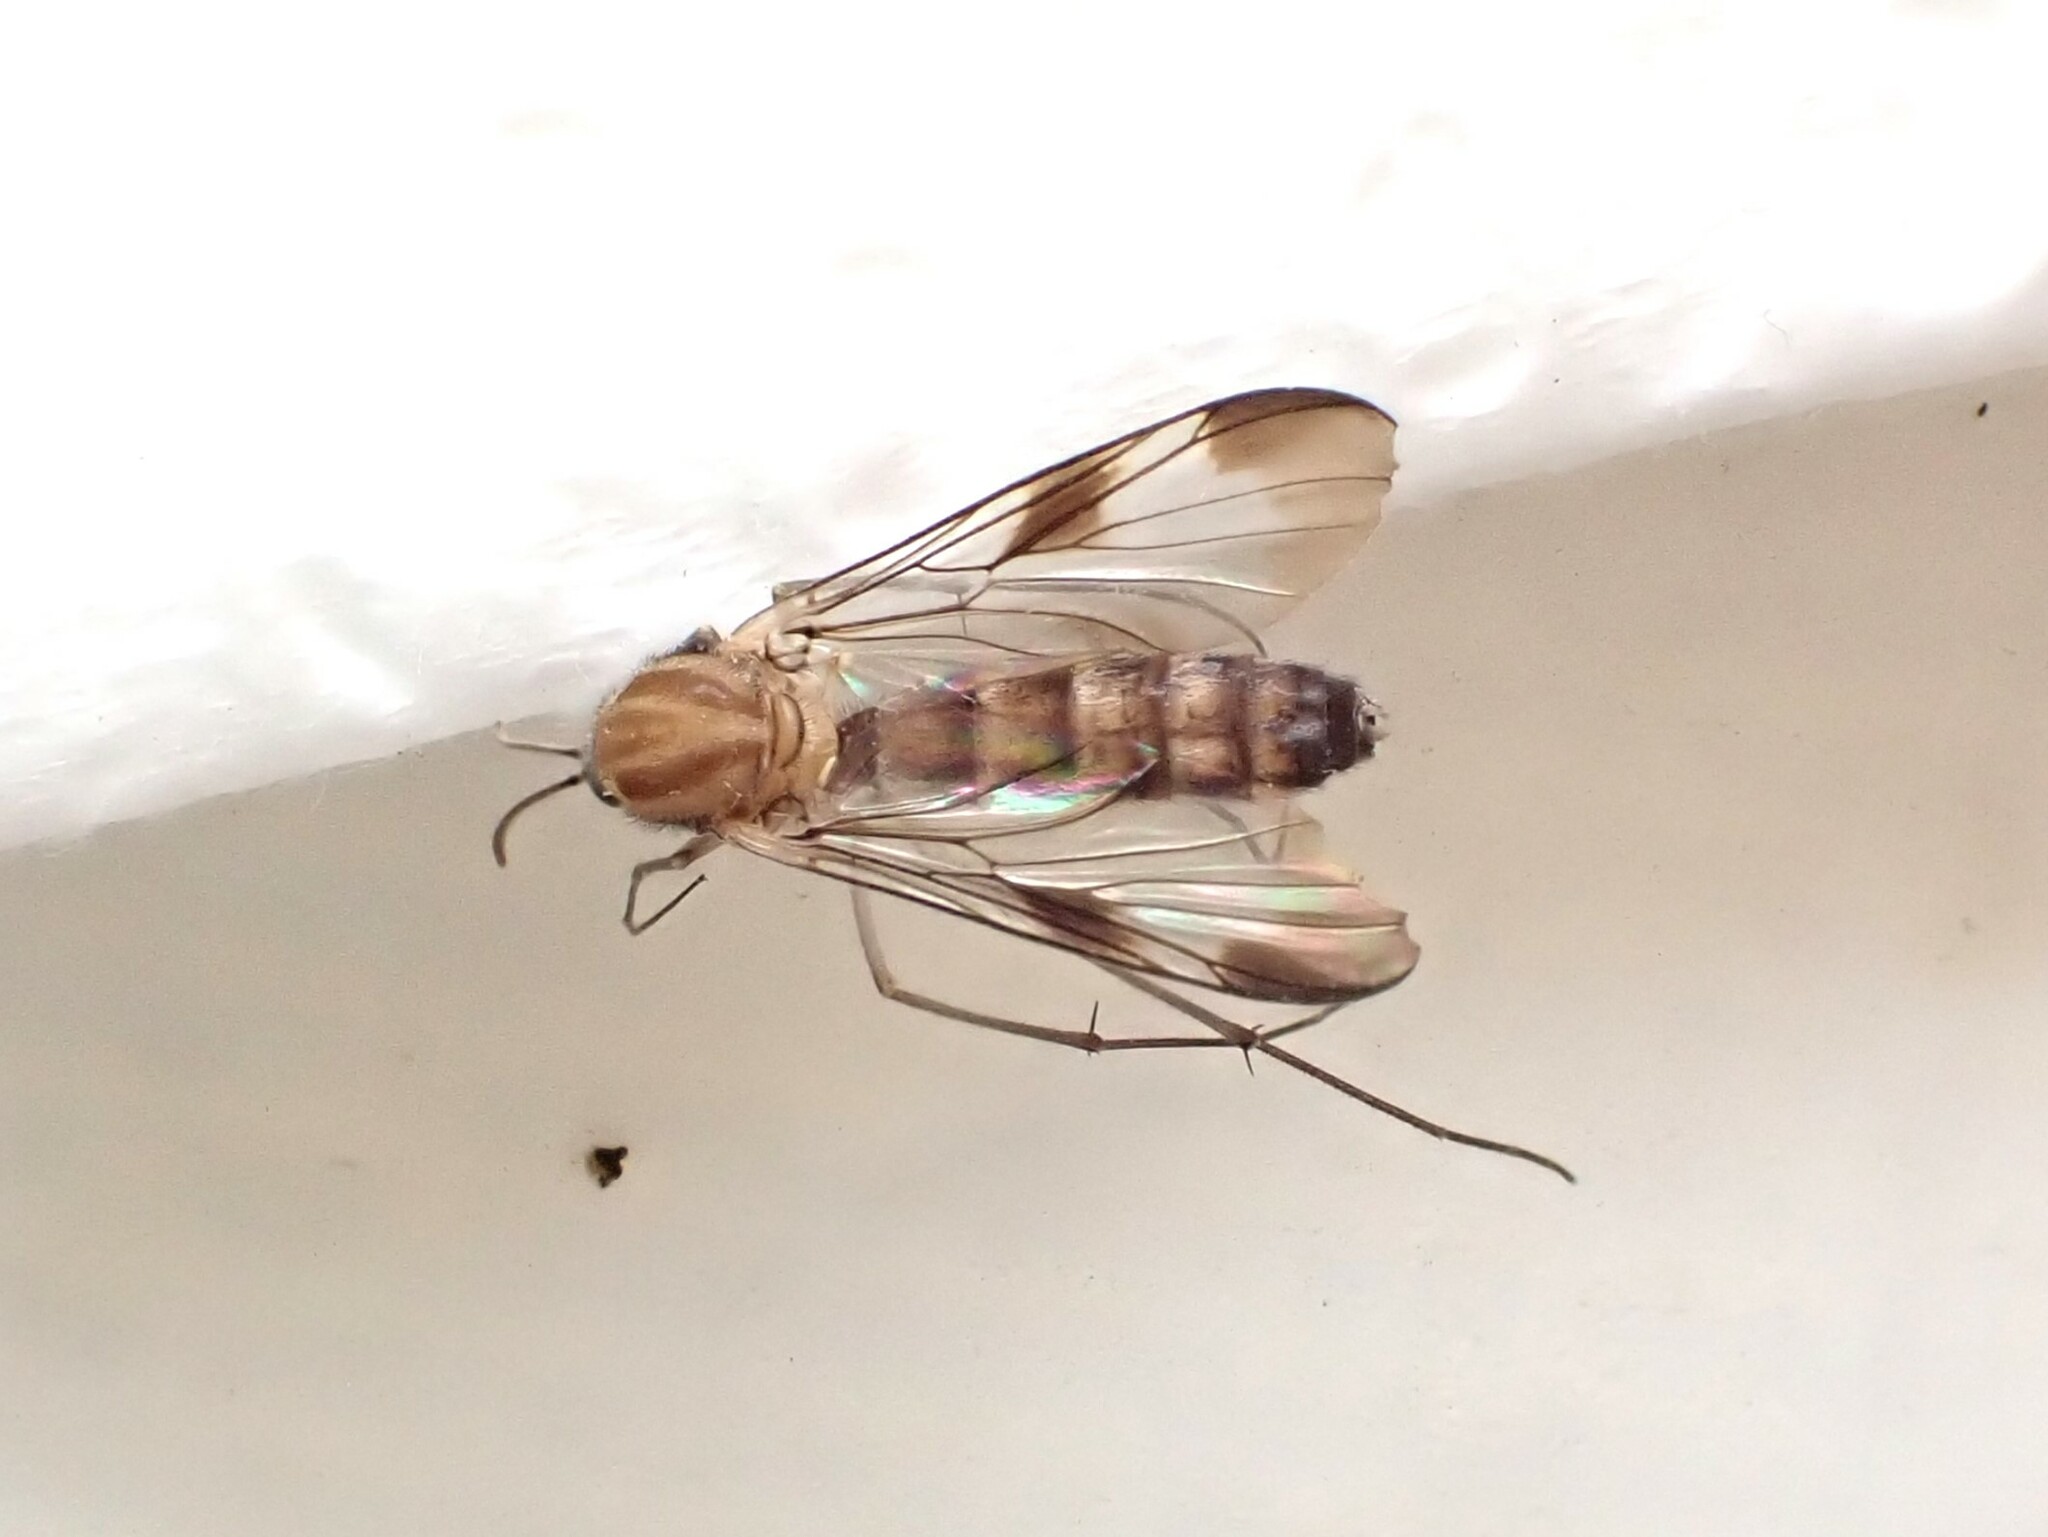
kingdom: Animalia
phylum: Arthropoda
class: Insecta
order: Diptera
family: Keroplatidae
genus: Cerotelion
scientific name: Cerotelion tapleyi
